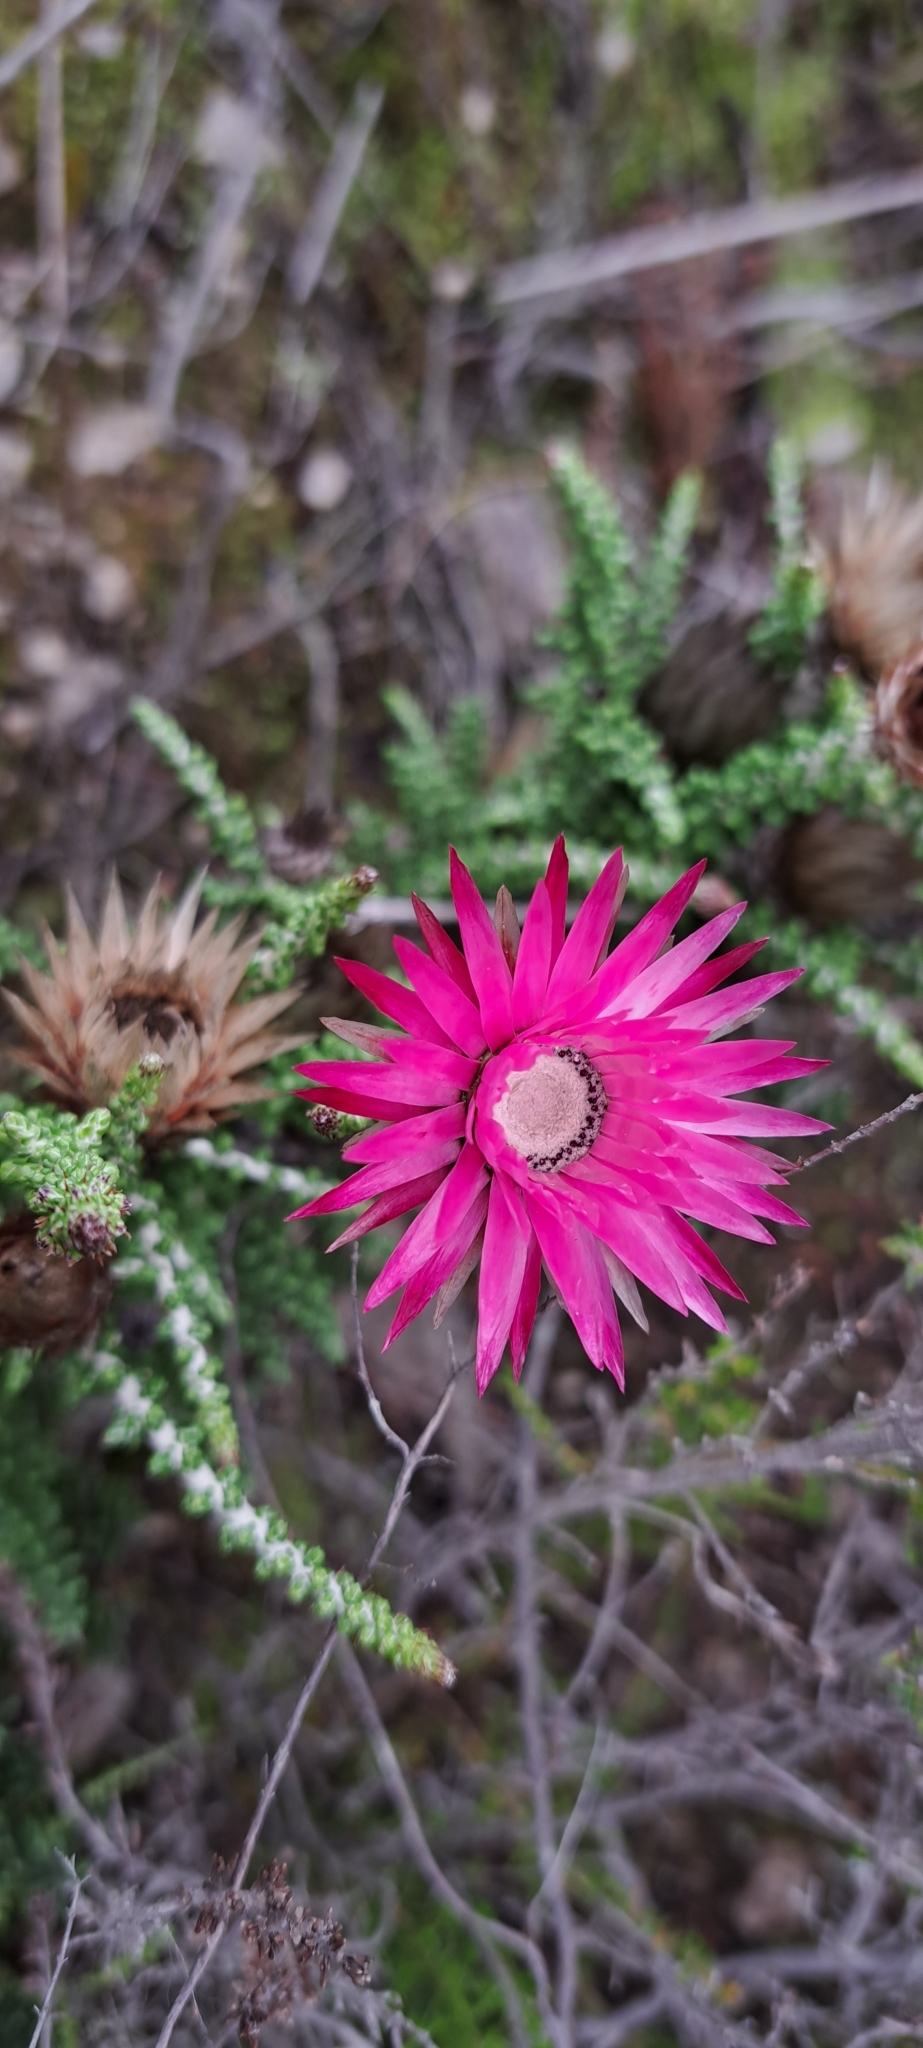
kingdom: Plantae
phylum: Tracheophyta
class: Magnoliopsida
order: Asterales
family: Asteraceae
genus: Phaenocoma
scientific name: Phaenocoma prolifera
